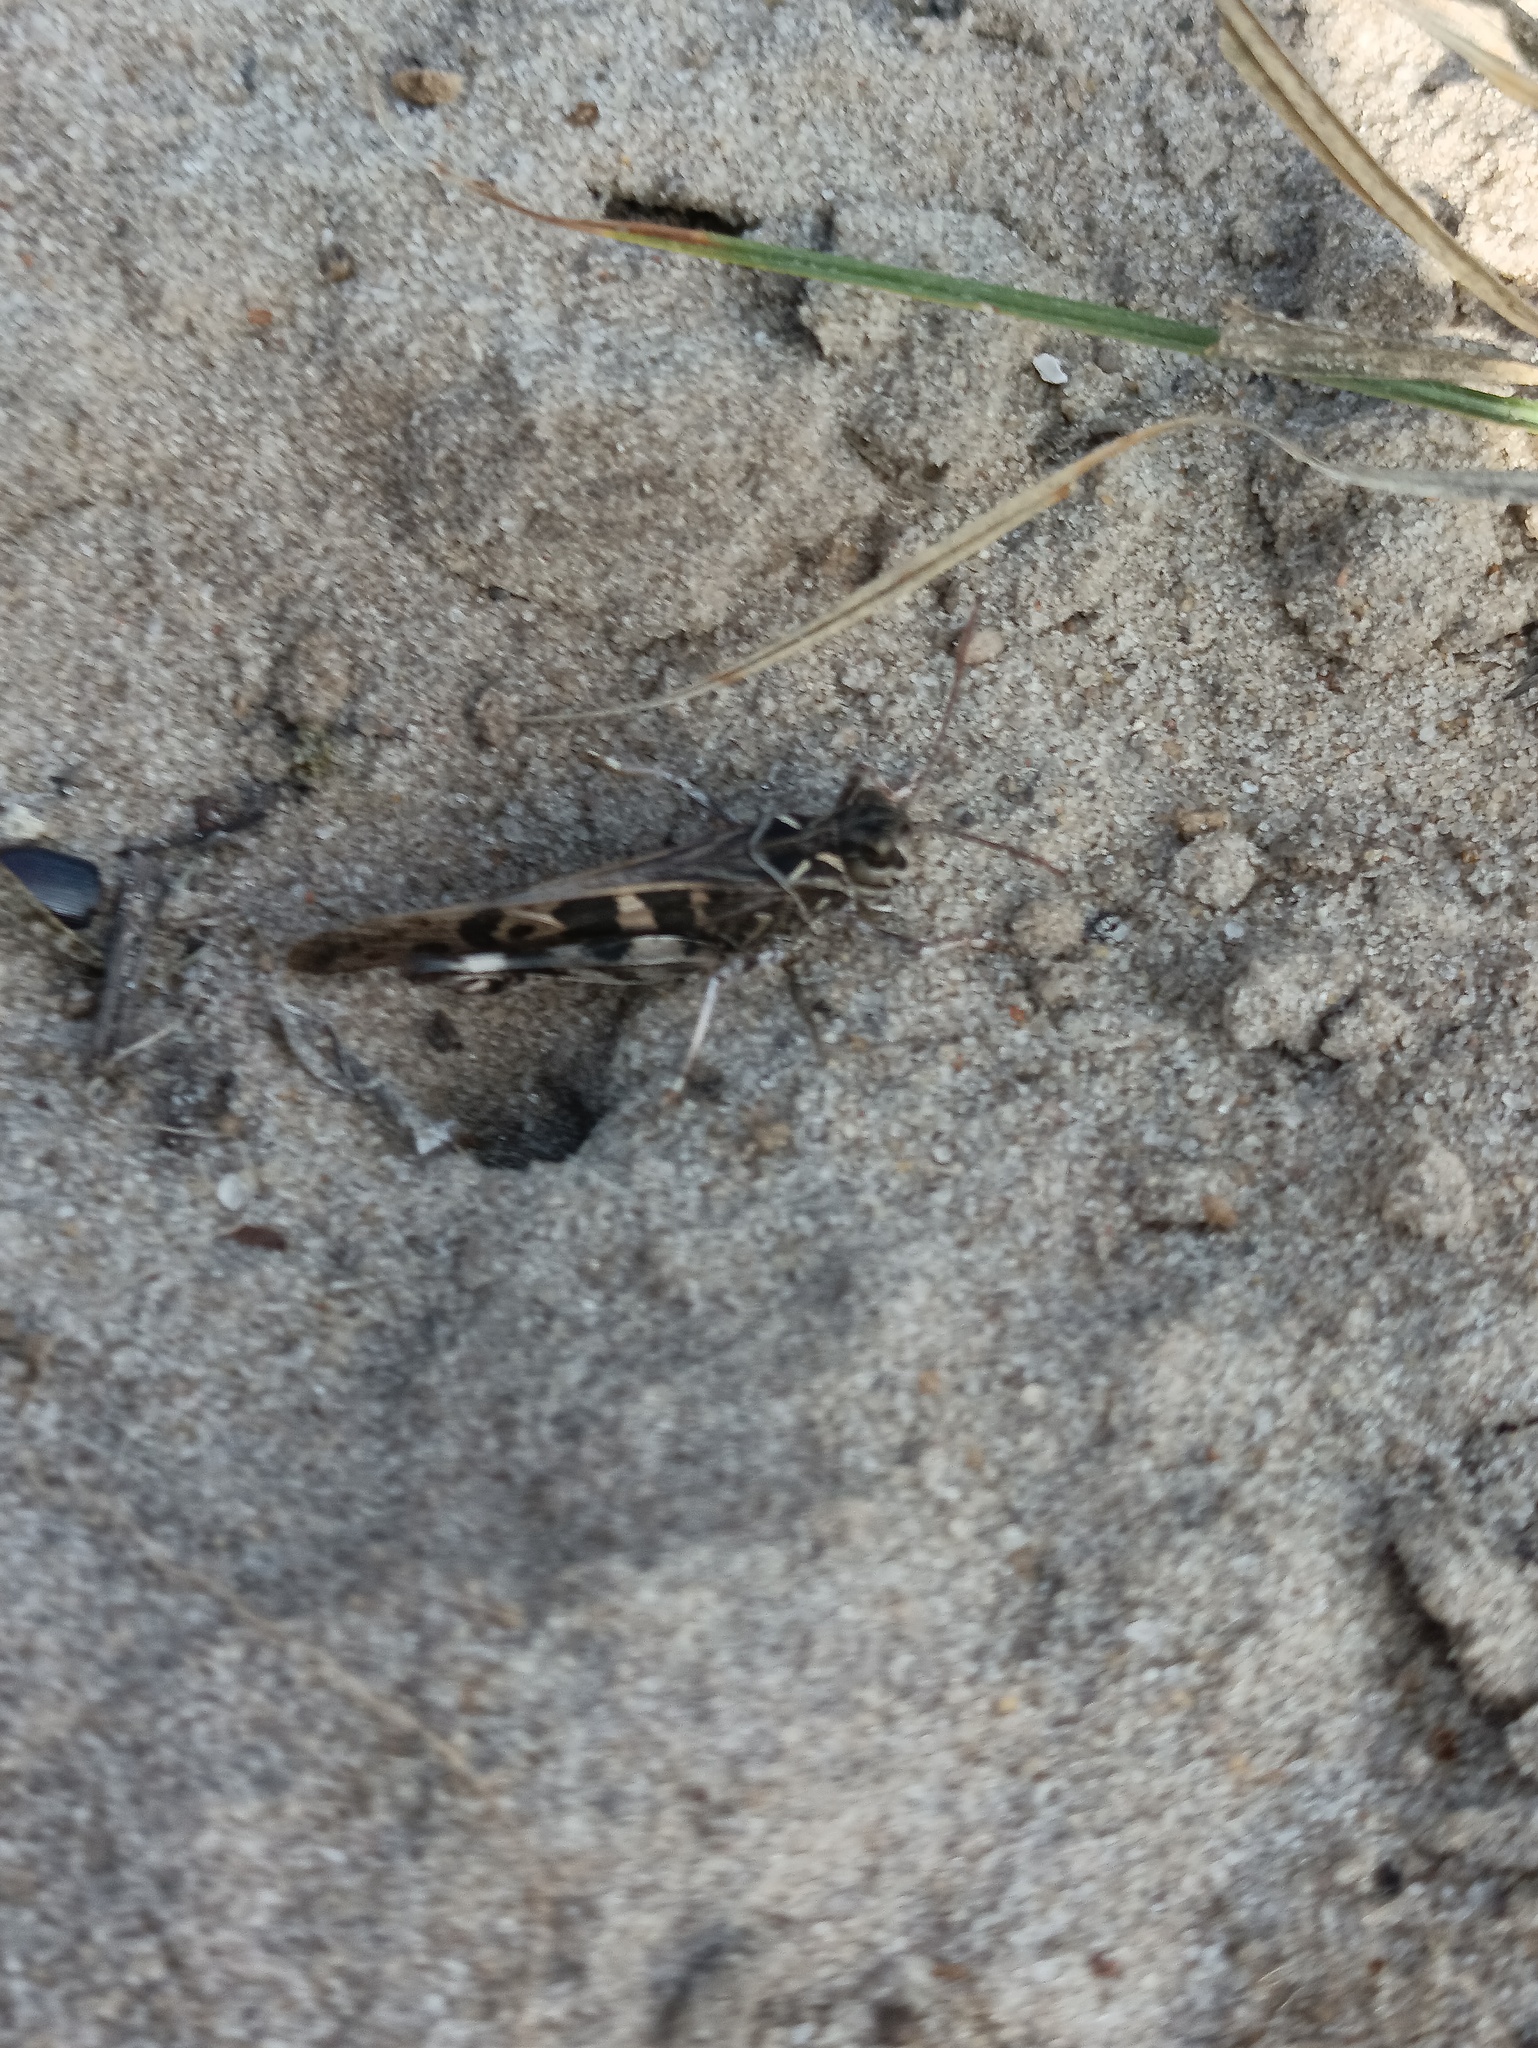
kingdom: Animalia
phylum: Arthropoda
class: Insecta
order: Orthoptera
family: Acrididae
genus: Oedaleus
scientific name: Oedaleus decorus
